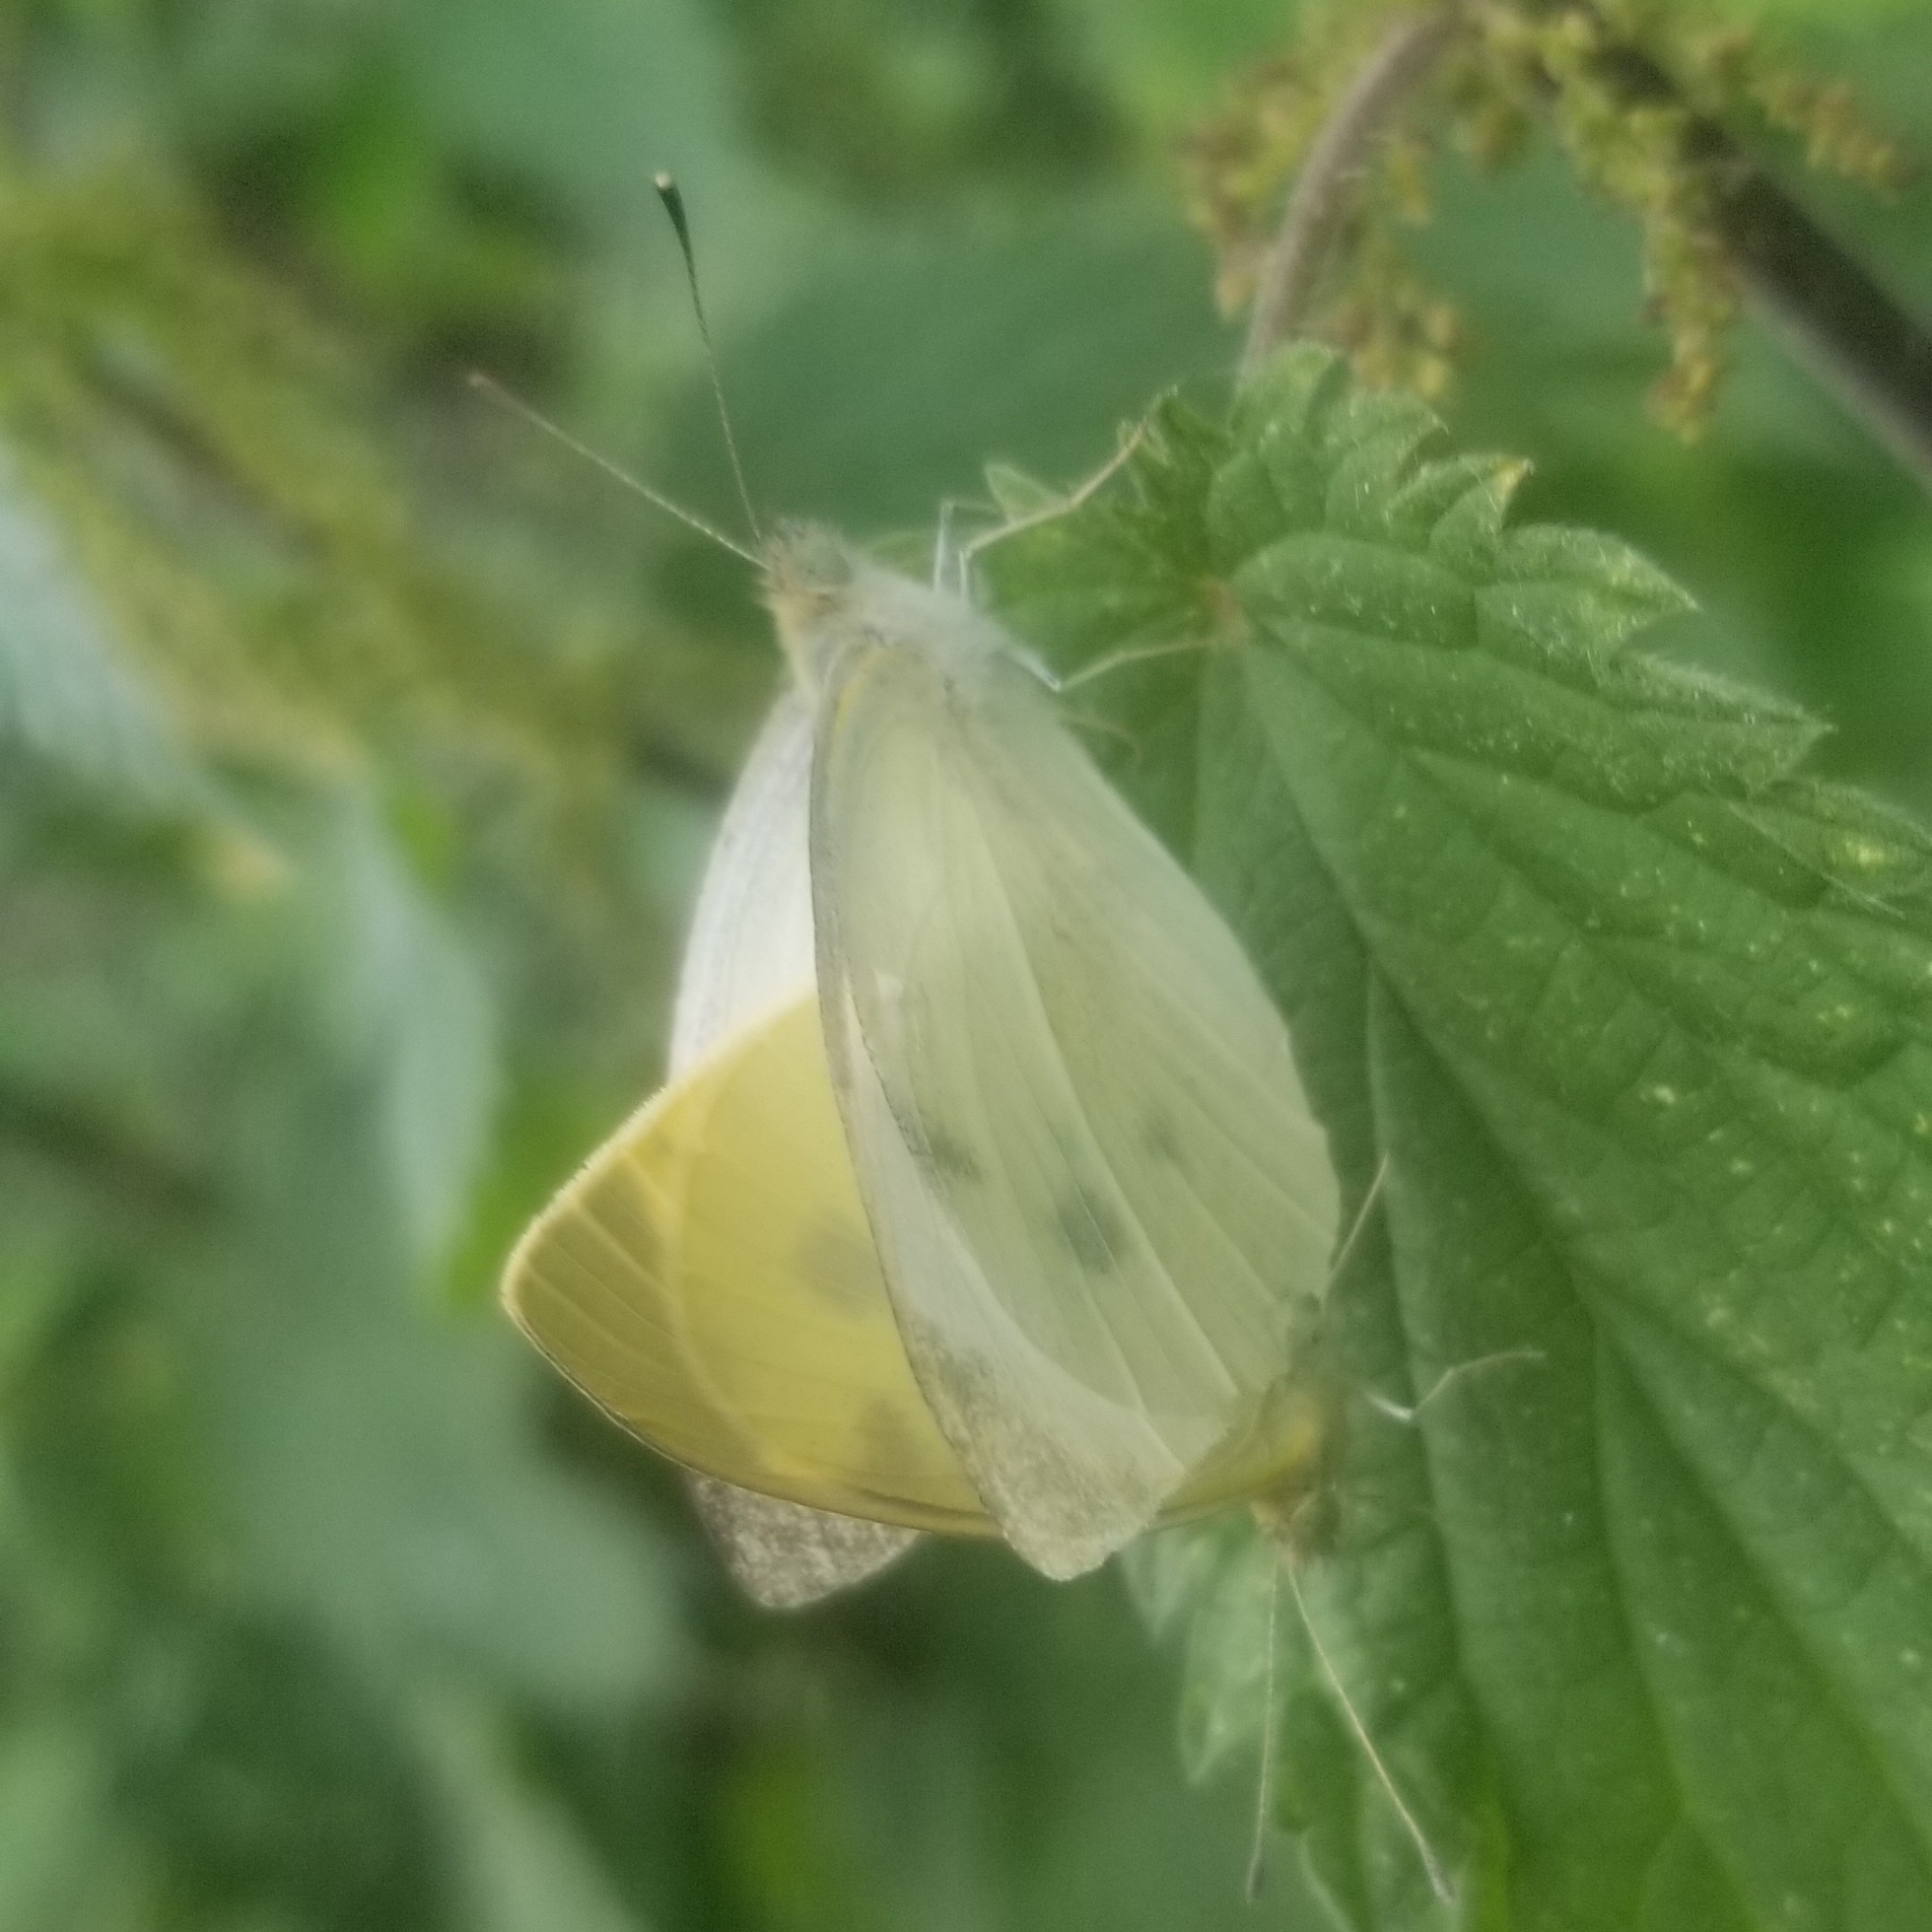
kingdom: Animalia
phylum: Arthropoda
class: Insecta
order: Lepidoptera
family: Pieridae
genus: Pieris
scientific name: Pieris rapae
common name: Small white
